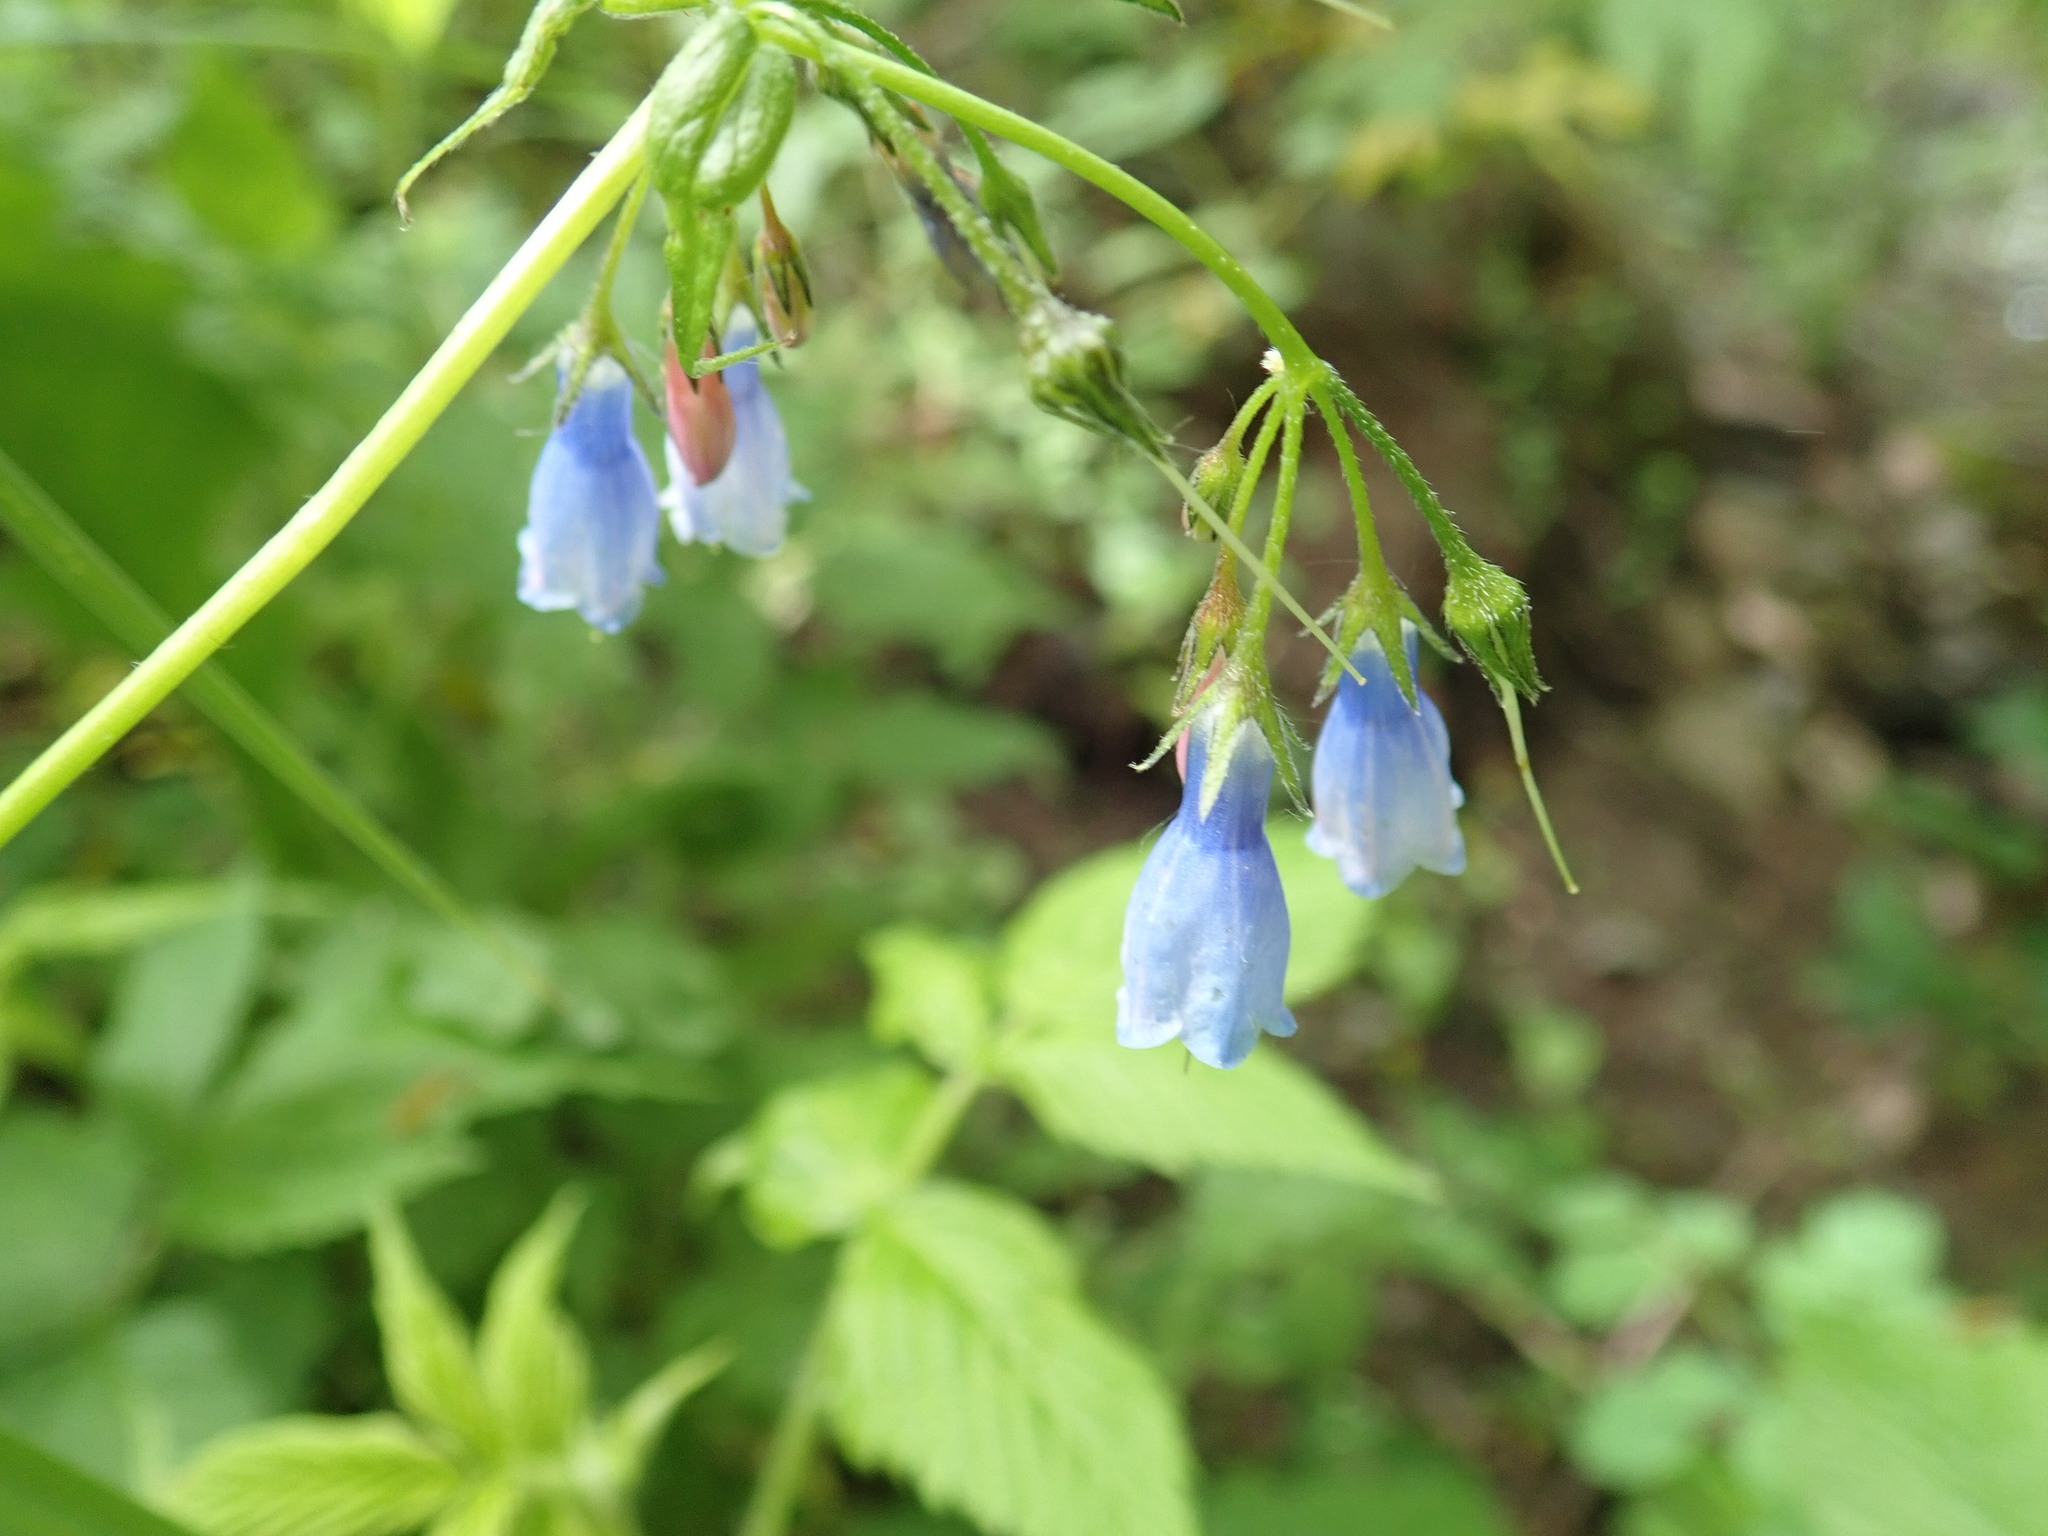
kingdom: Plantae
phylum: Tracheophyta
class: Magnoliopsida
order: Boraginales
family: Boraginaceae
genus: Mertensia
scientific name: Mertensia paniculata
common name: Panicled bluebells
